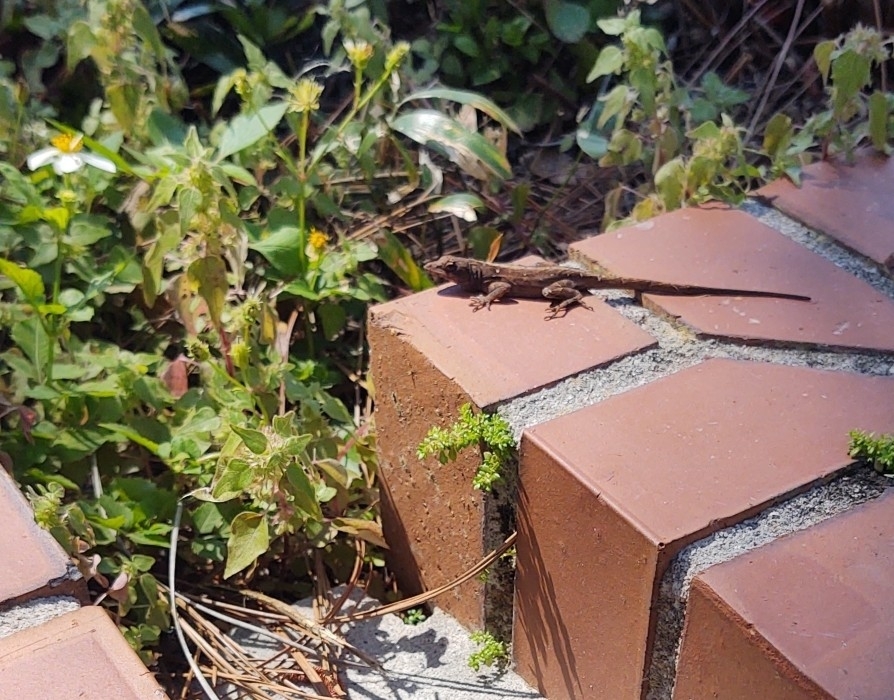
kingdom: Animalia
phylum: Chordata
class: Squamata
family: Dactyloidae
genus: Anolis
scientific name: Anolis sagrei
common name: Brown anole
